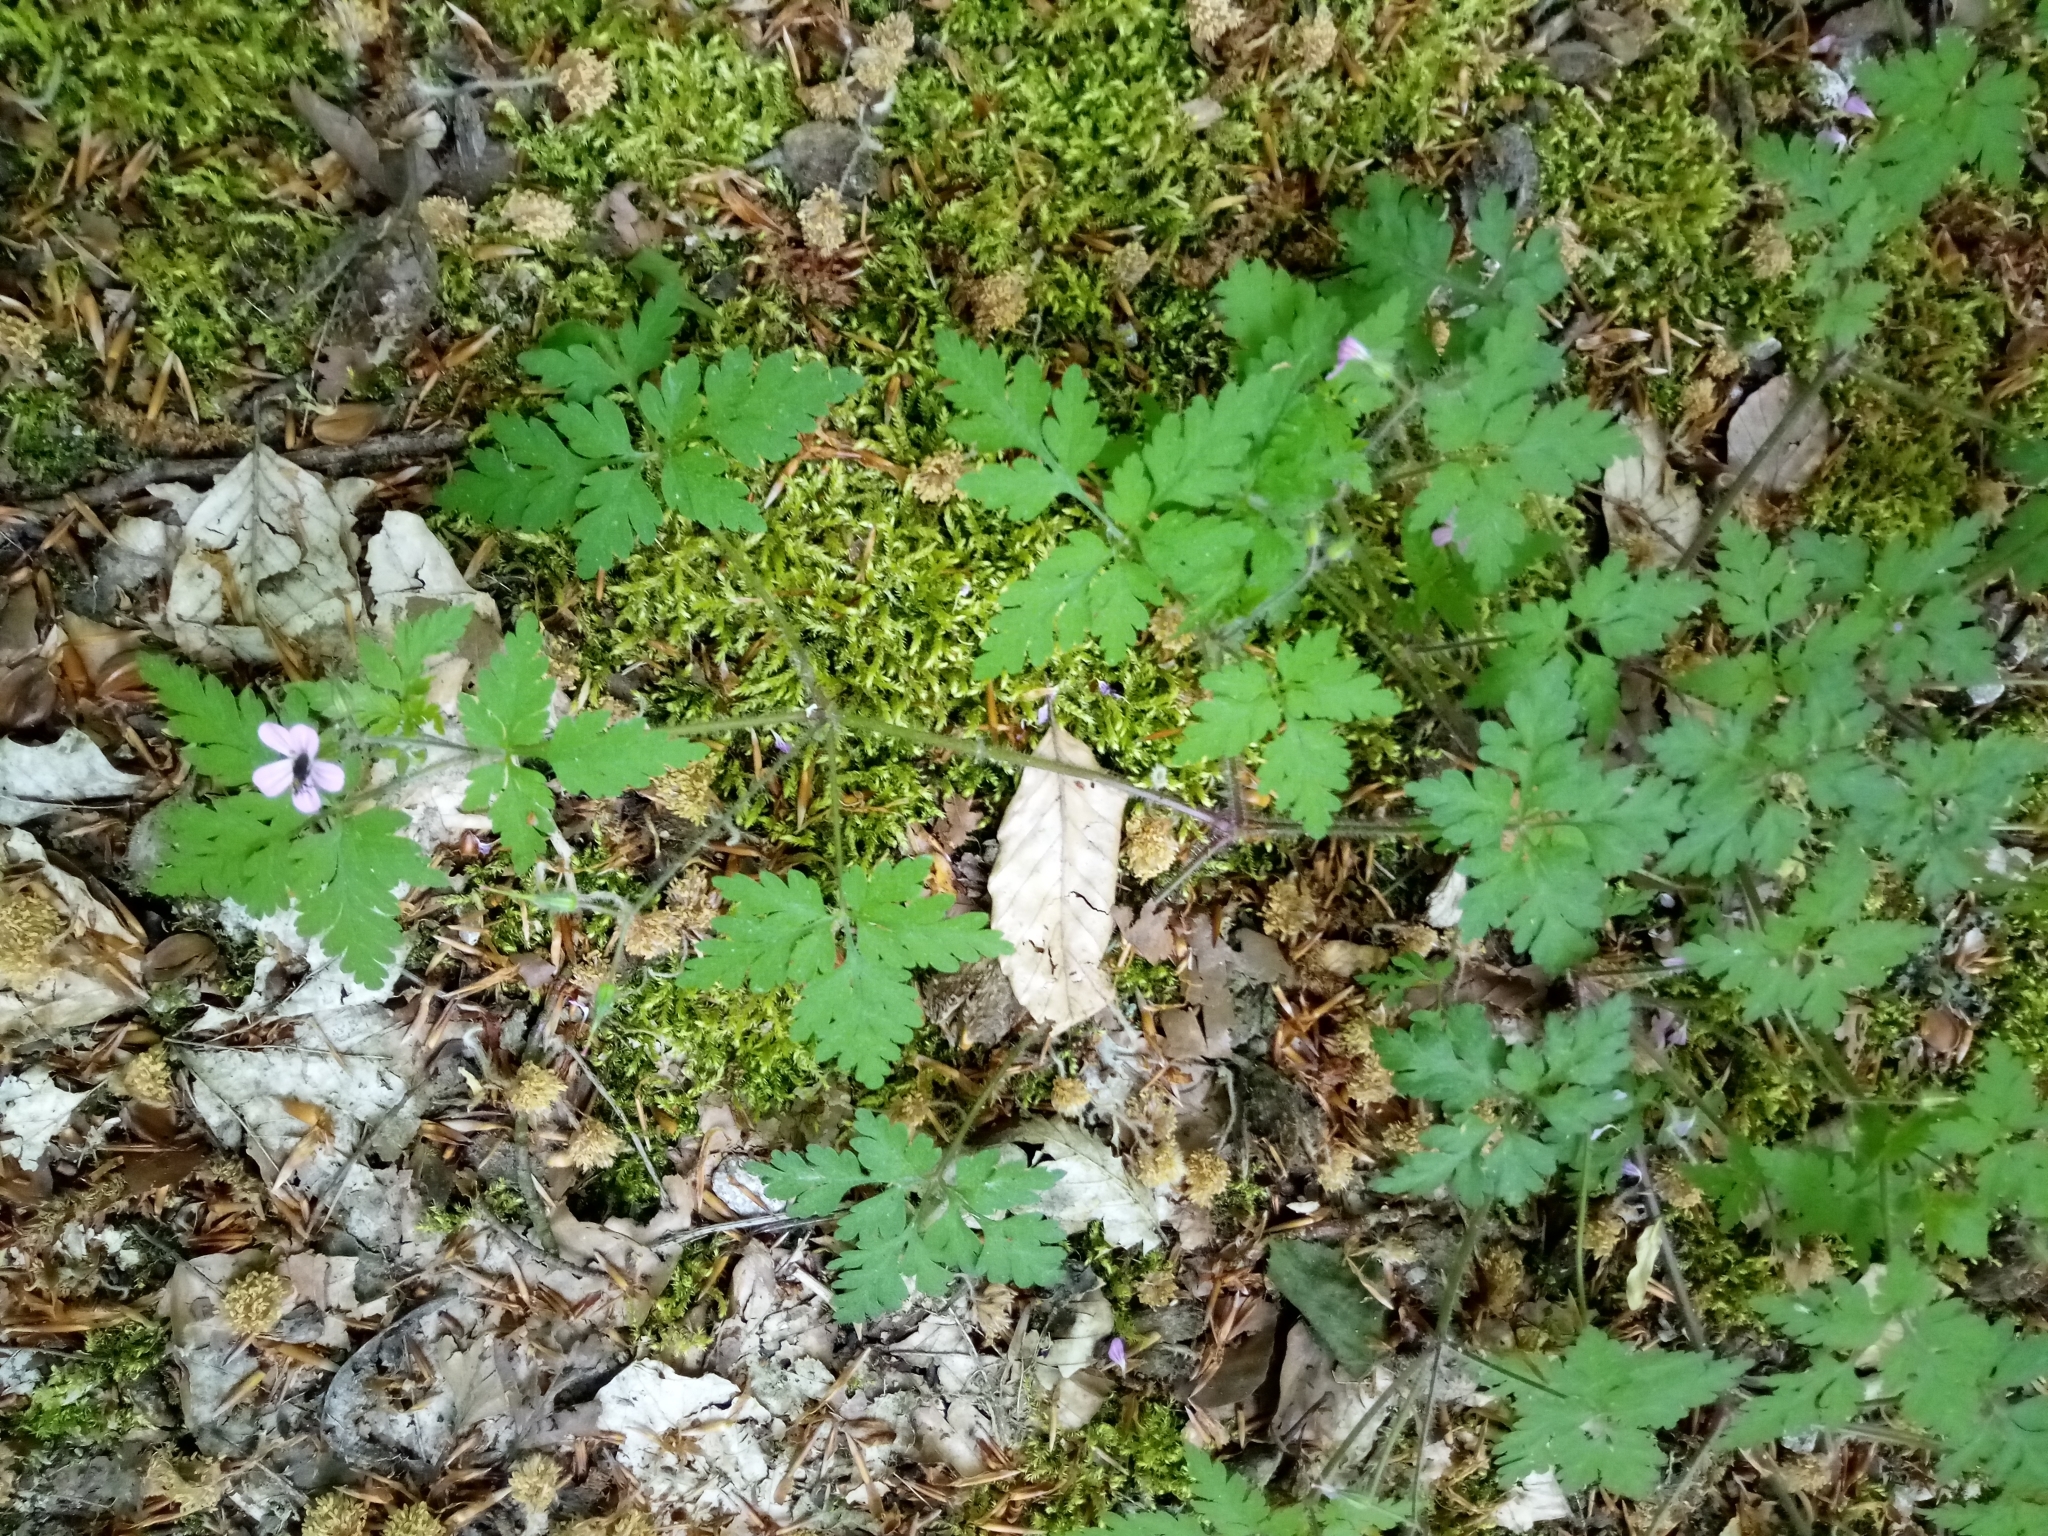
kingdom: Plantae
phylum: Tracheophyta
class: Magnoliopsida
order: Geraniales
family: Geraniaceae
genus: Geranium
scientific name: Geranium robertianum
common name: Herb-robert
